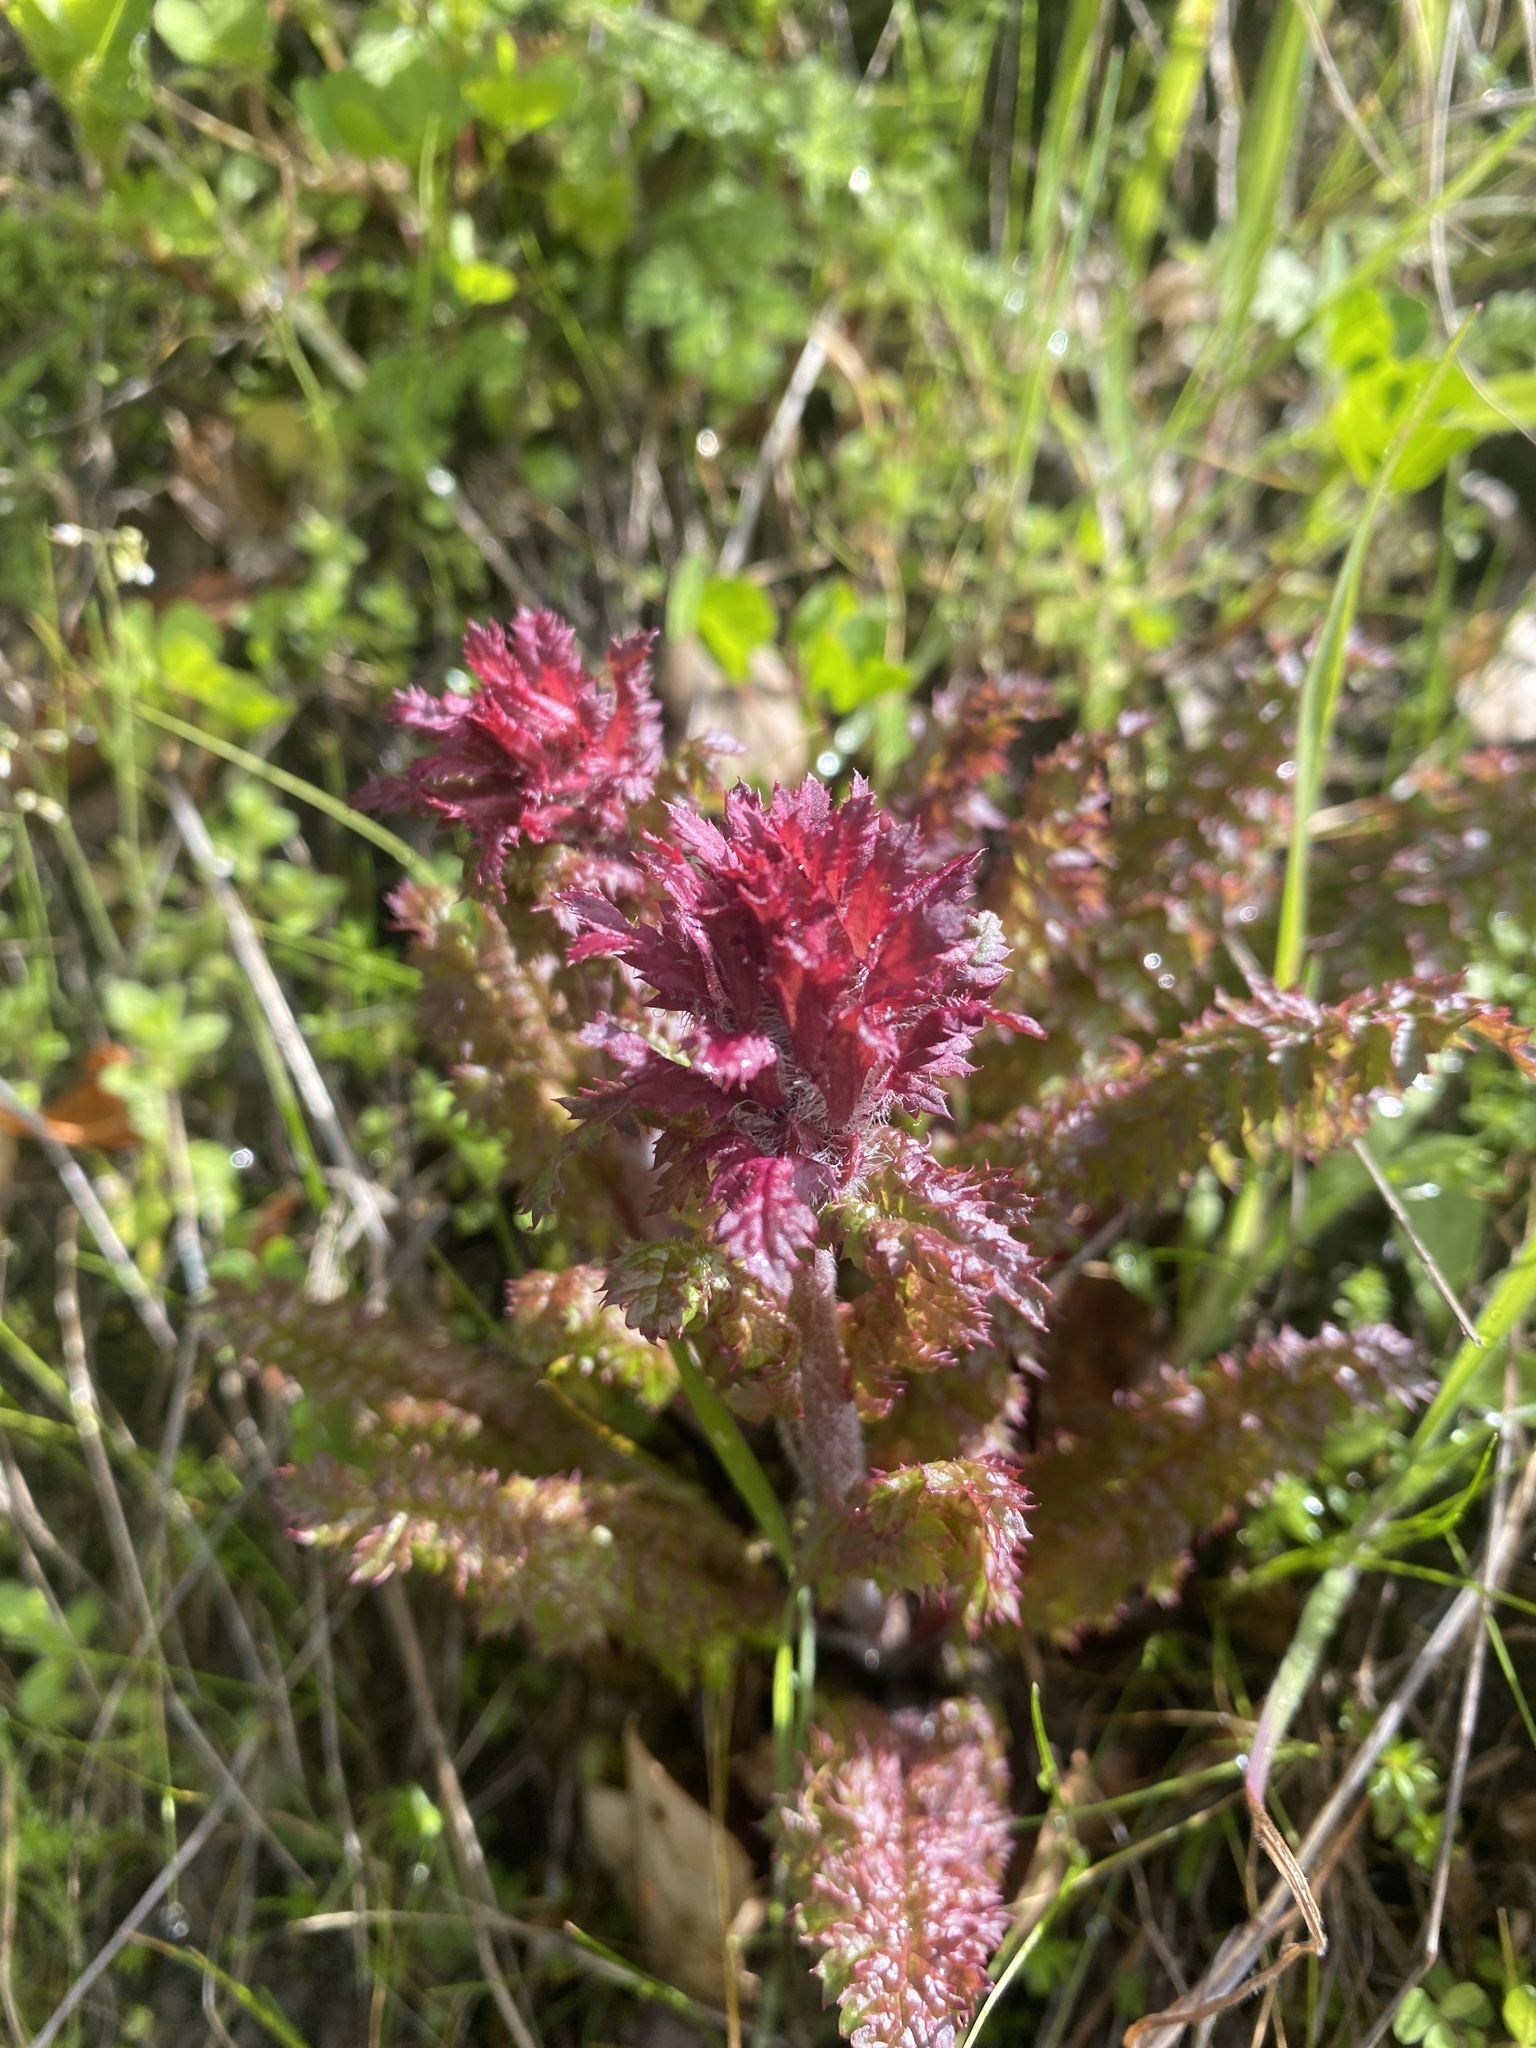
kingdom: Plantae
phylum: Tracheophyta
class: Magnoliopsida
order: Lamiales
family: Orobanchaceae
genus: Pedicularis
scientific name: Pedicularis densiflora
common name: Indian warrior
